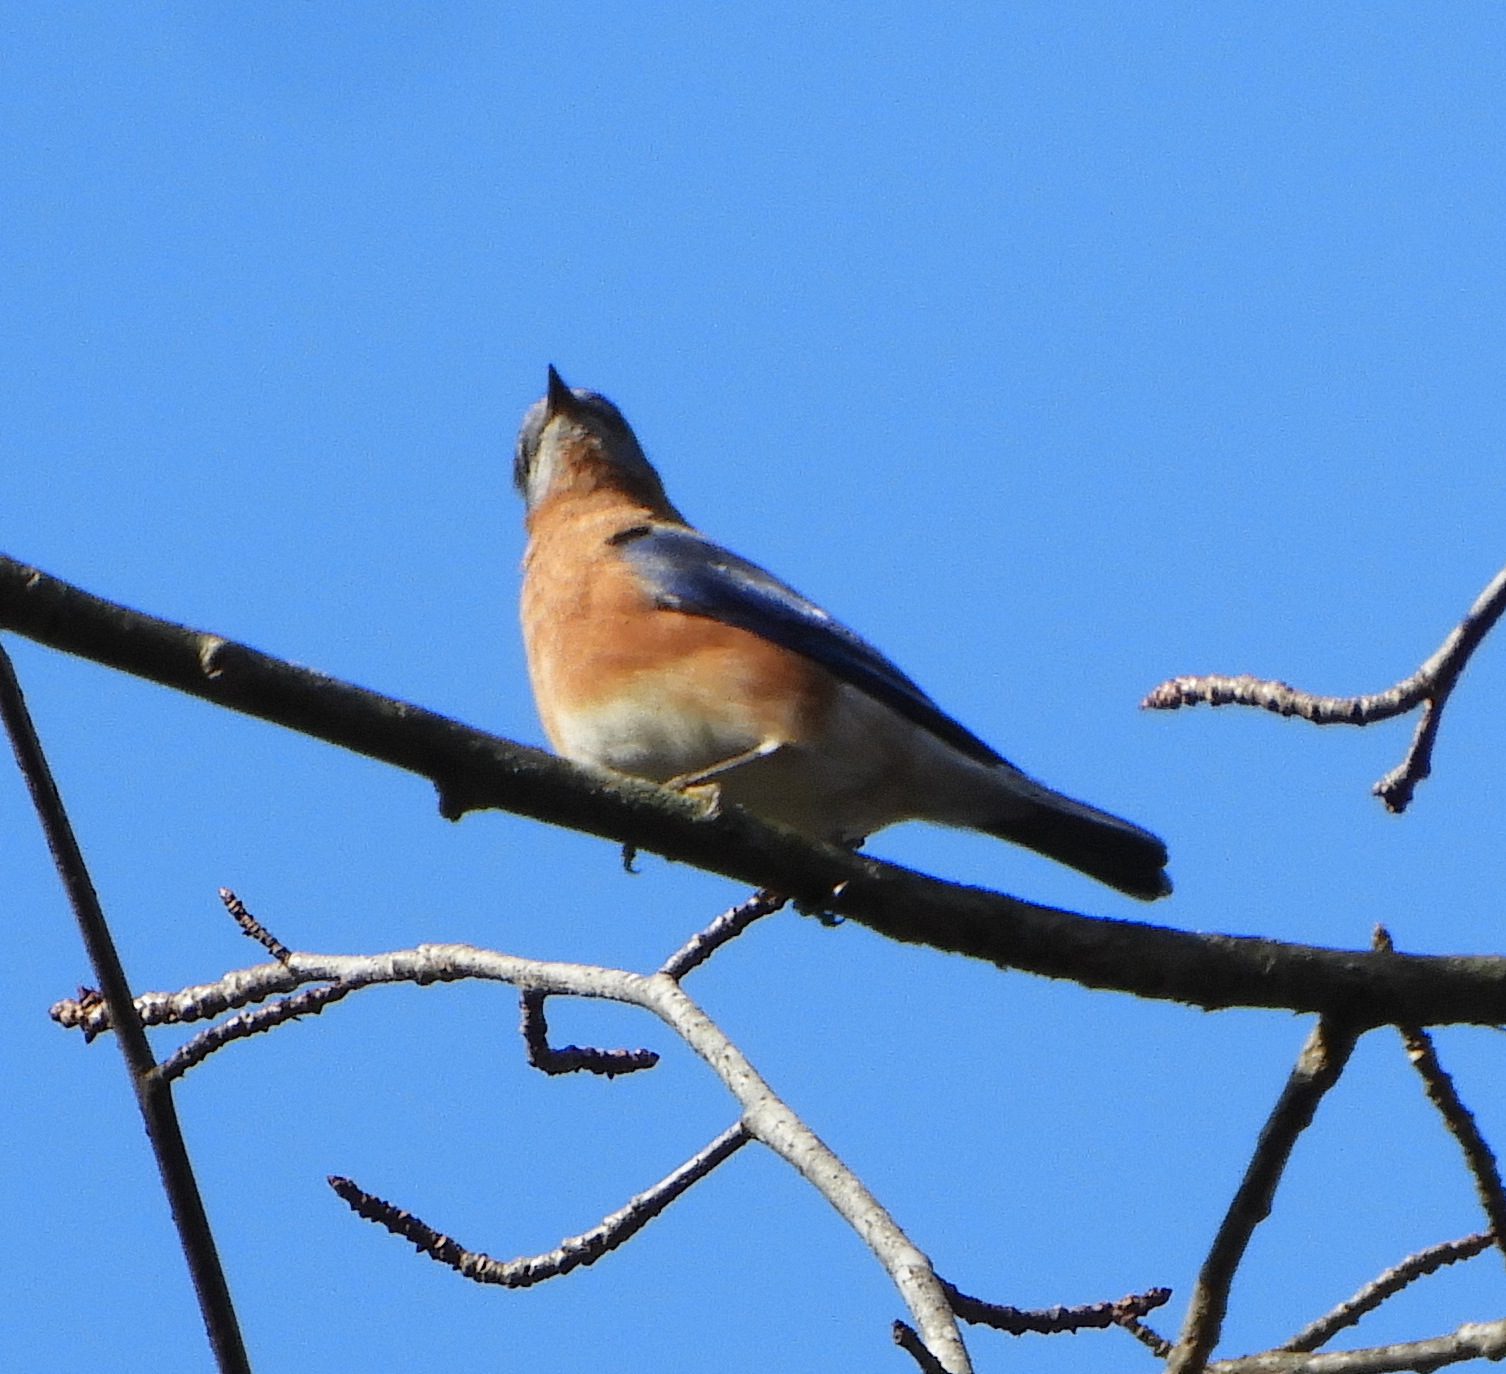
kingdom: Animalia
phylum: Chordata
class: Aves
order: Passeriformes
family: Turdidae
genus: Sialia
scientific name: Sialia sialis
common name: Eastern bluebird
